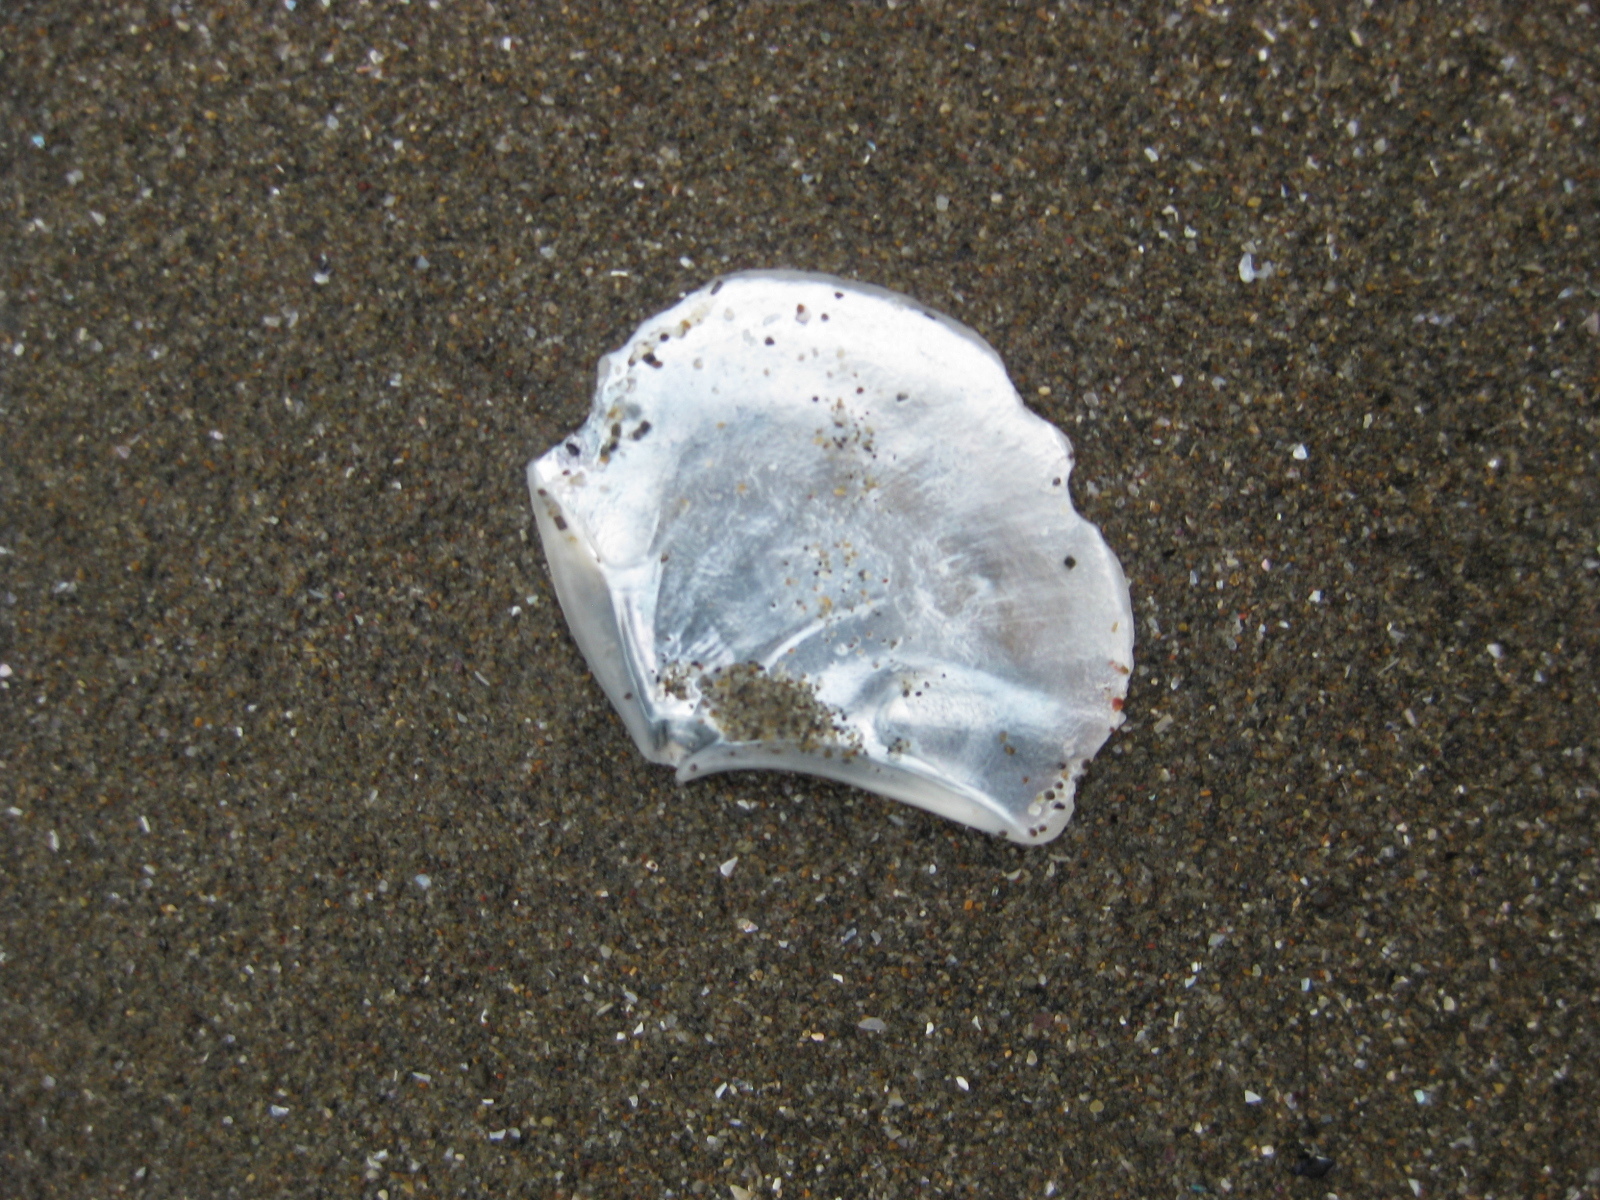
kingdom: Animalia
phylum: Mollusca
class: Bivalvia
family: Myochamidae
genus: Myadora
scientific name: Myadora striata
